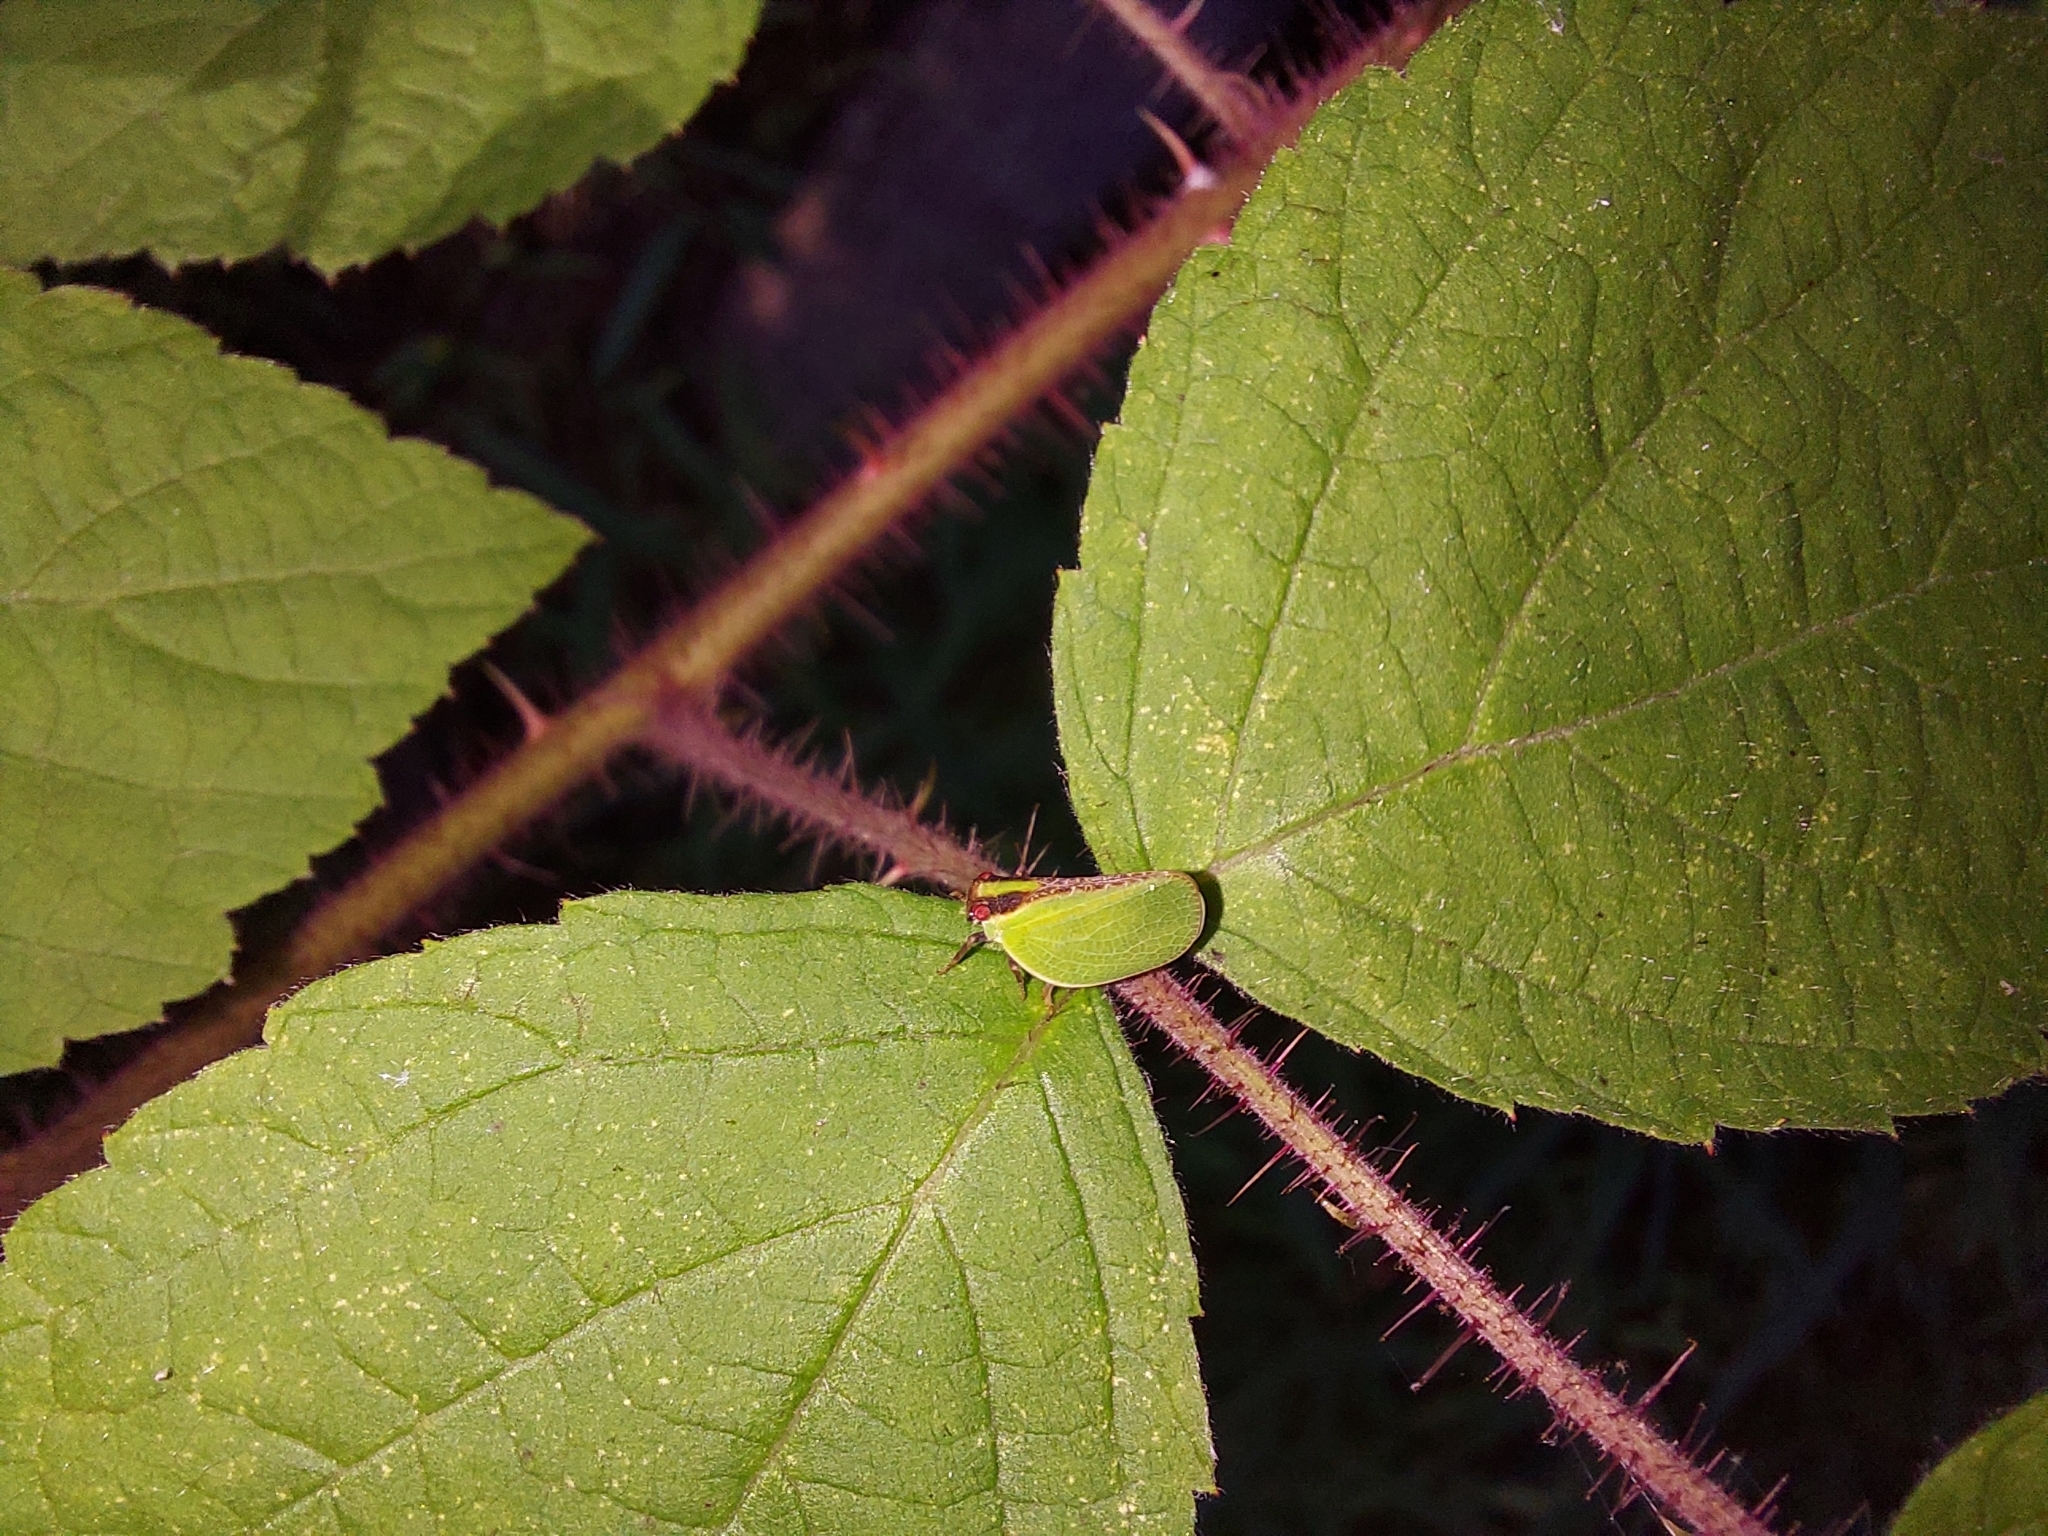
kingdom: Animalia
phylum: Arthropoda
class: Insecta
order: Hemiptera
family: Acanaloniidae
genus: Acanalonia
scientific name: Acanalonia bivittata
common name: Two-striped planthopper
